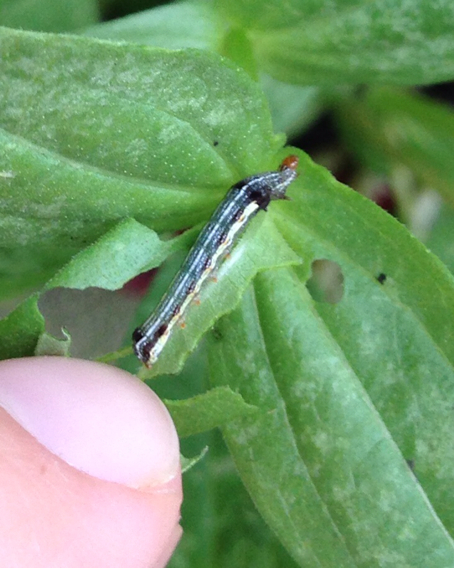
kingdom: Animalia
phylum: Arthropoda
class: Insecta
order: Lepidoptera
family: Noctuidae
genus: Spodoptera
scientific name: Spodoptera eridania
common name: Southern army worm
